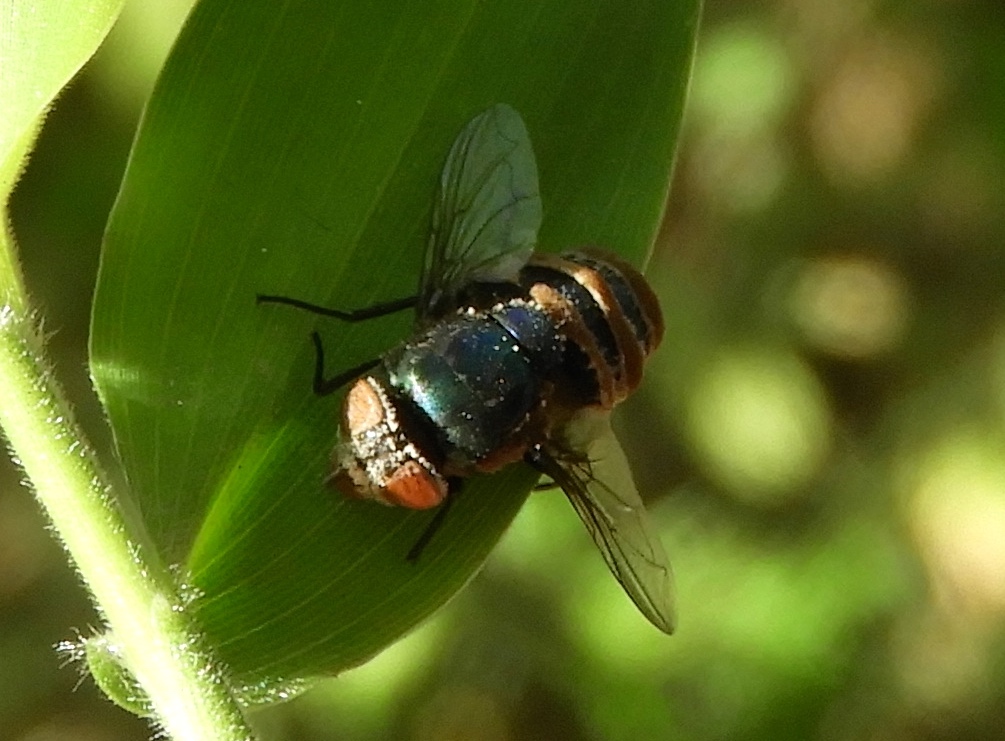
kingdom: Animalia
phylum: Arthropoda
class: Insecta
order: Diptera
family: Calliphoridae
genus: Chrysomya
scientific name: Chrysomya megacephala
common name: Blow fly
